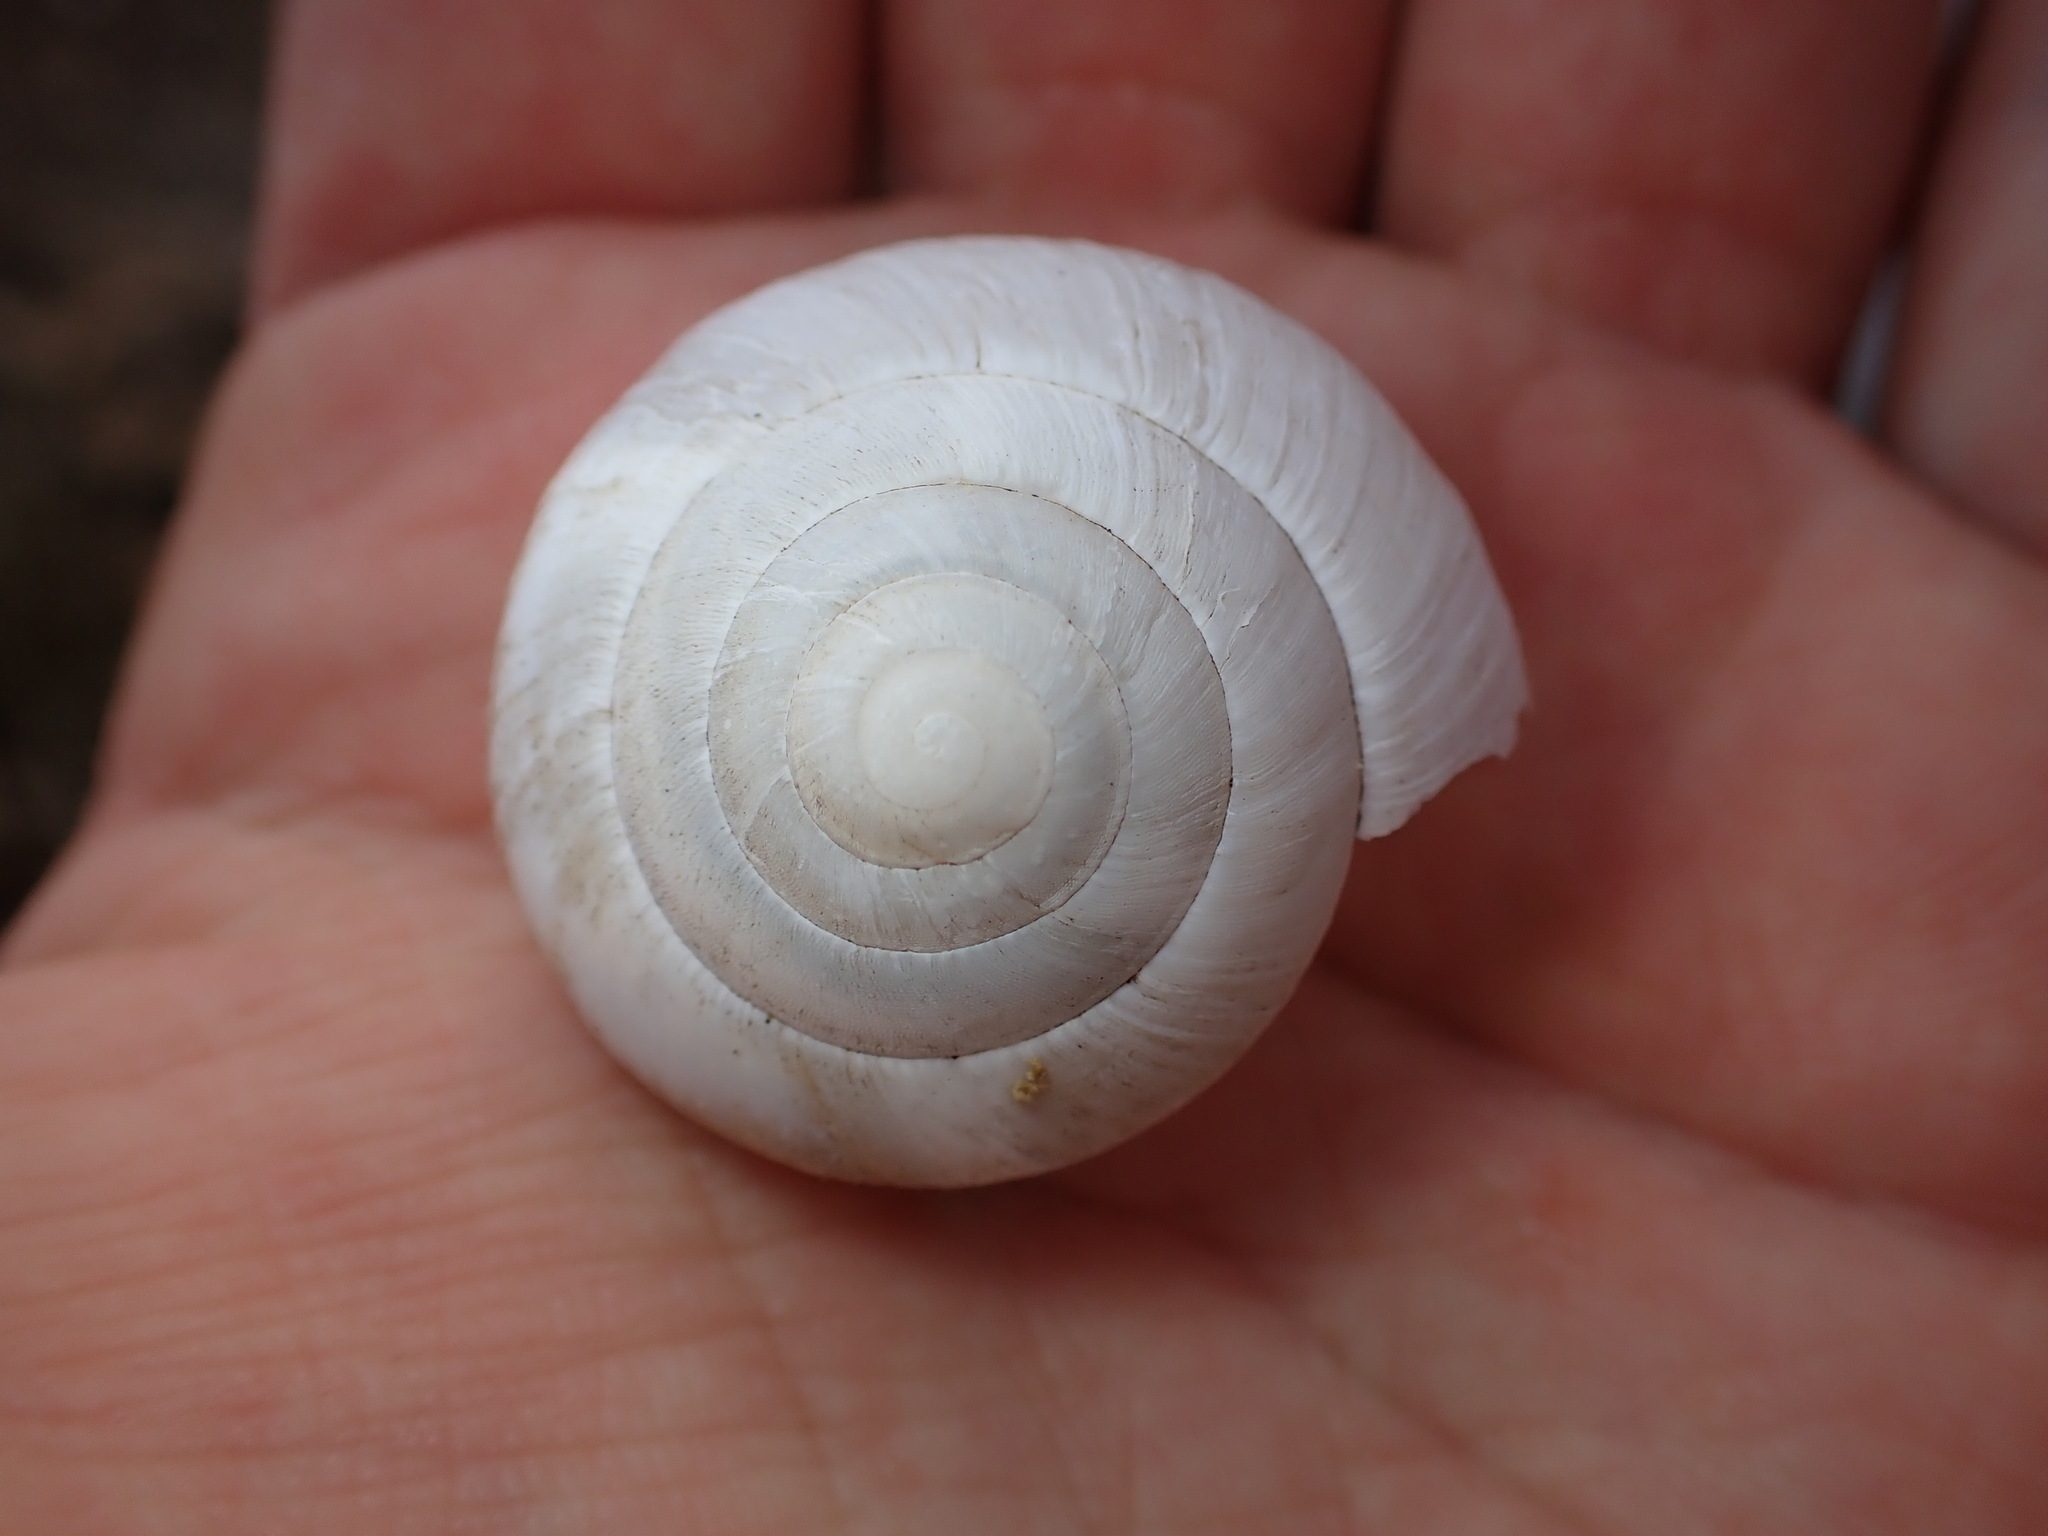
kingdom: Animalia
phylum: Mollusca
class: Gastropoda
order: Stylommatophora
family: Zonitidae
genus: Zonites
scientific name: Zonites algirus
